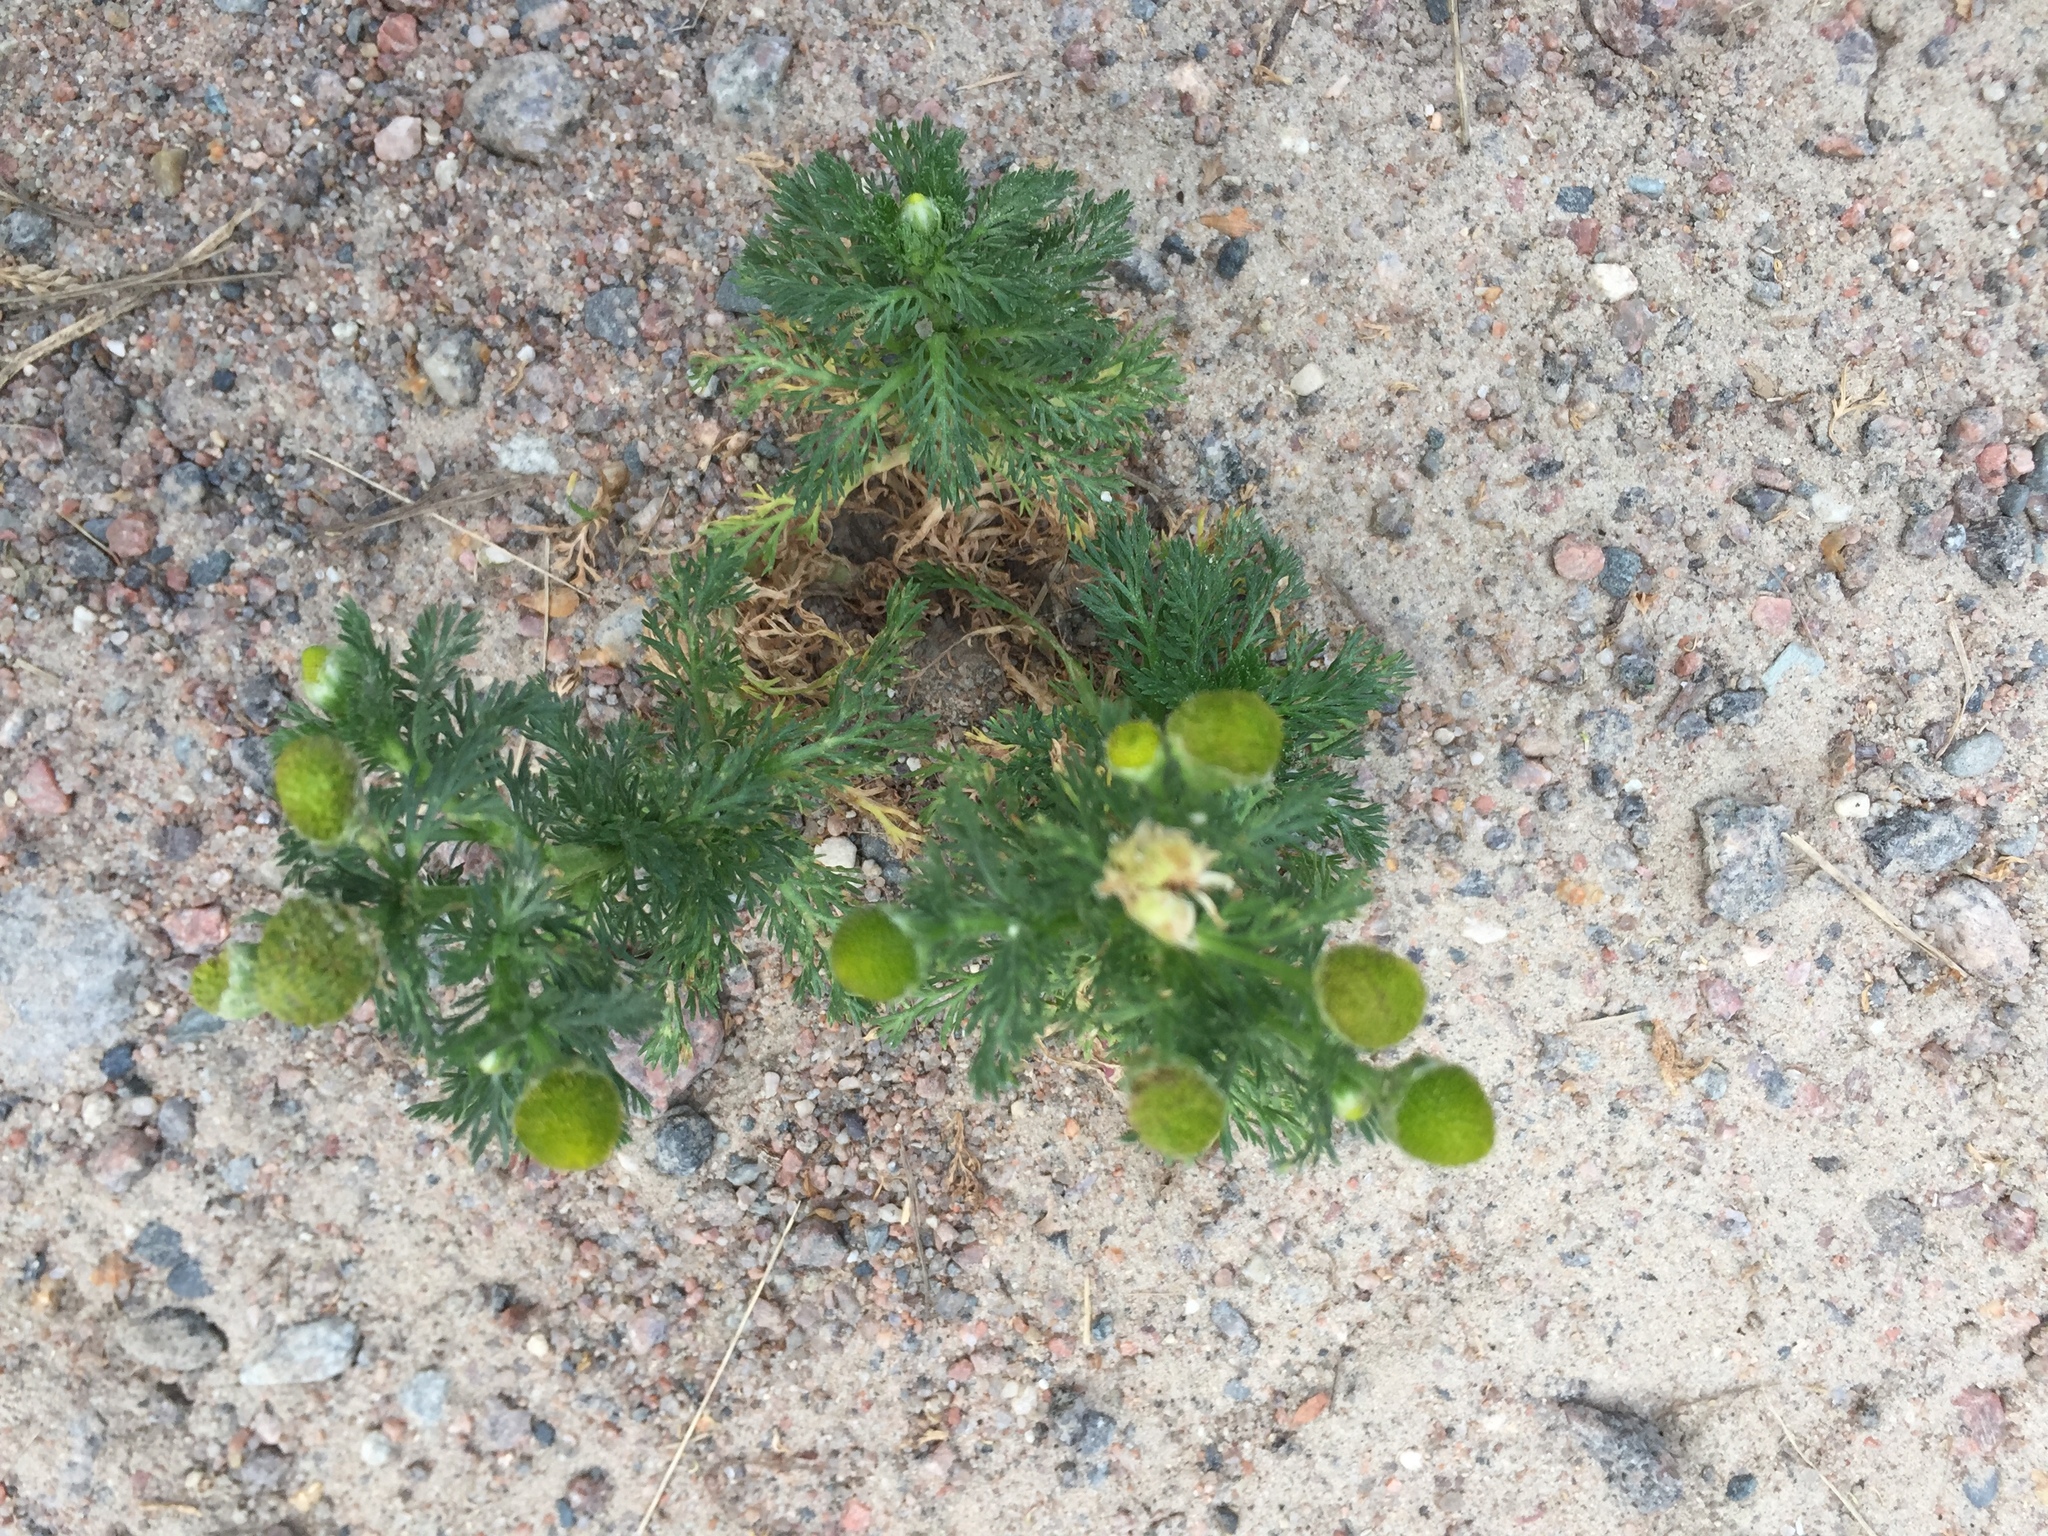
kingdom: Plantae
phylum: Tracheophyta
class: Magnoliopsida
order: Asterales
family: Asteraceae
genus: Matricaria
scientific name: Matricaria discoidea
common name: Disc mayweed
